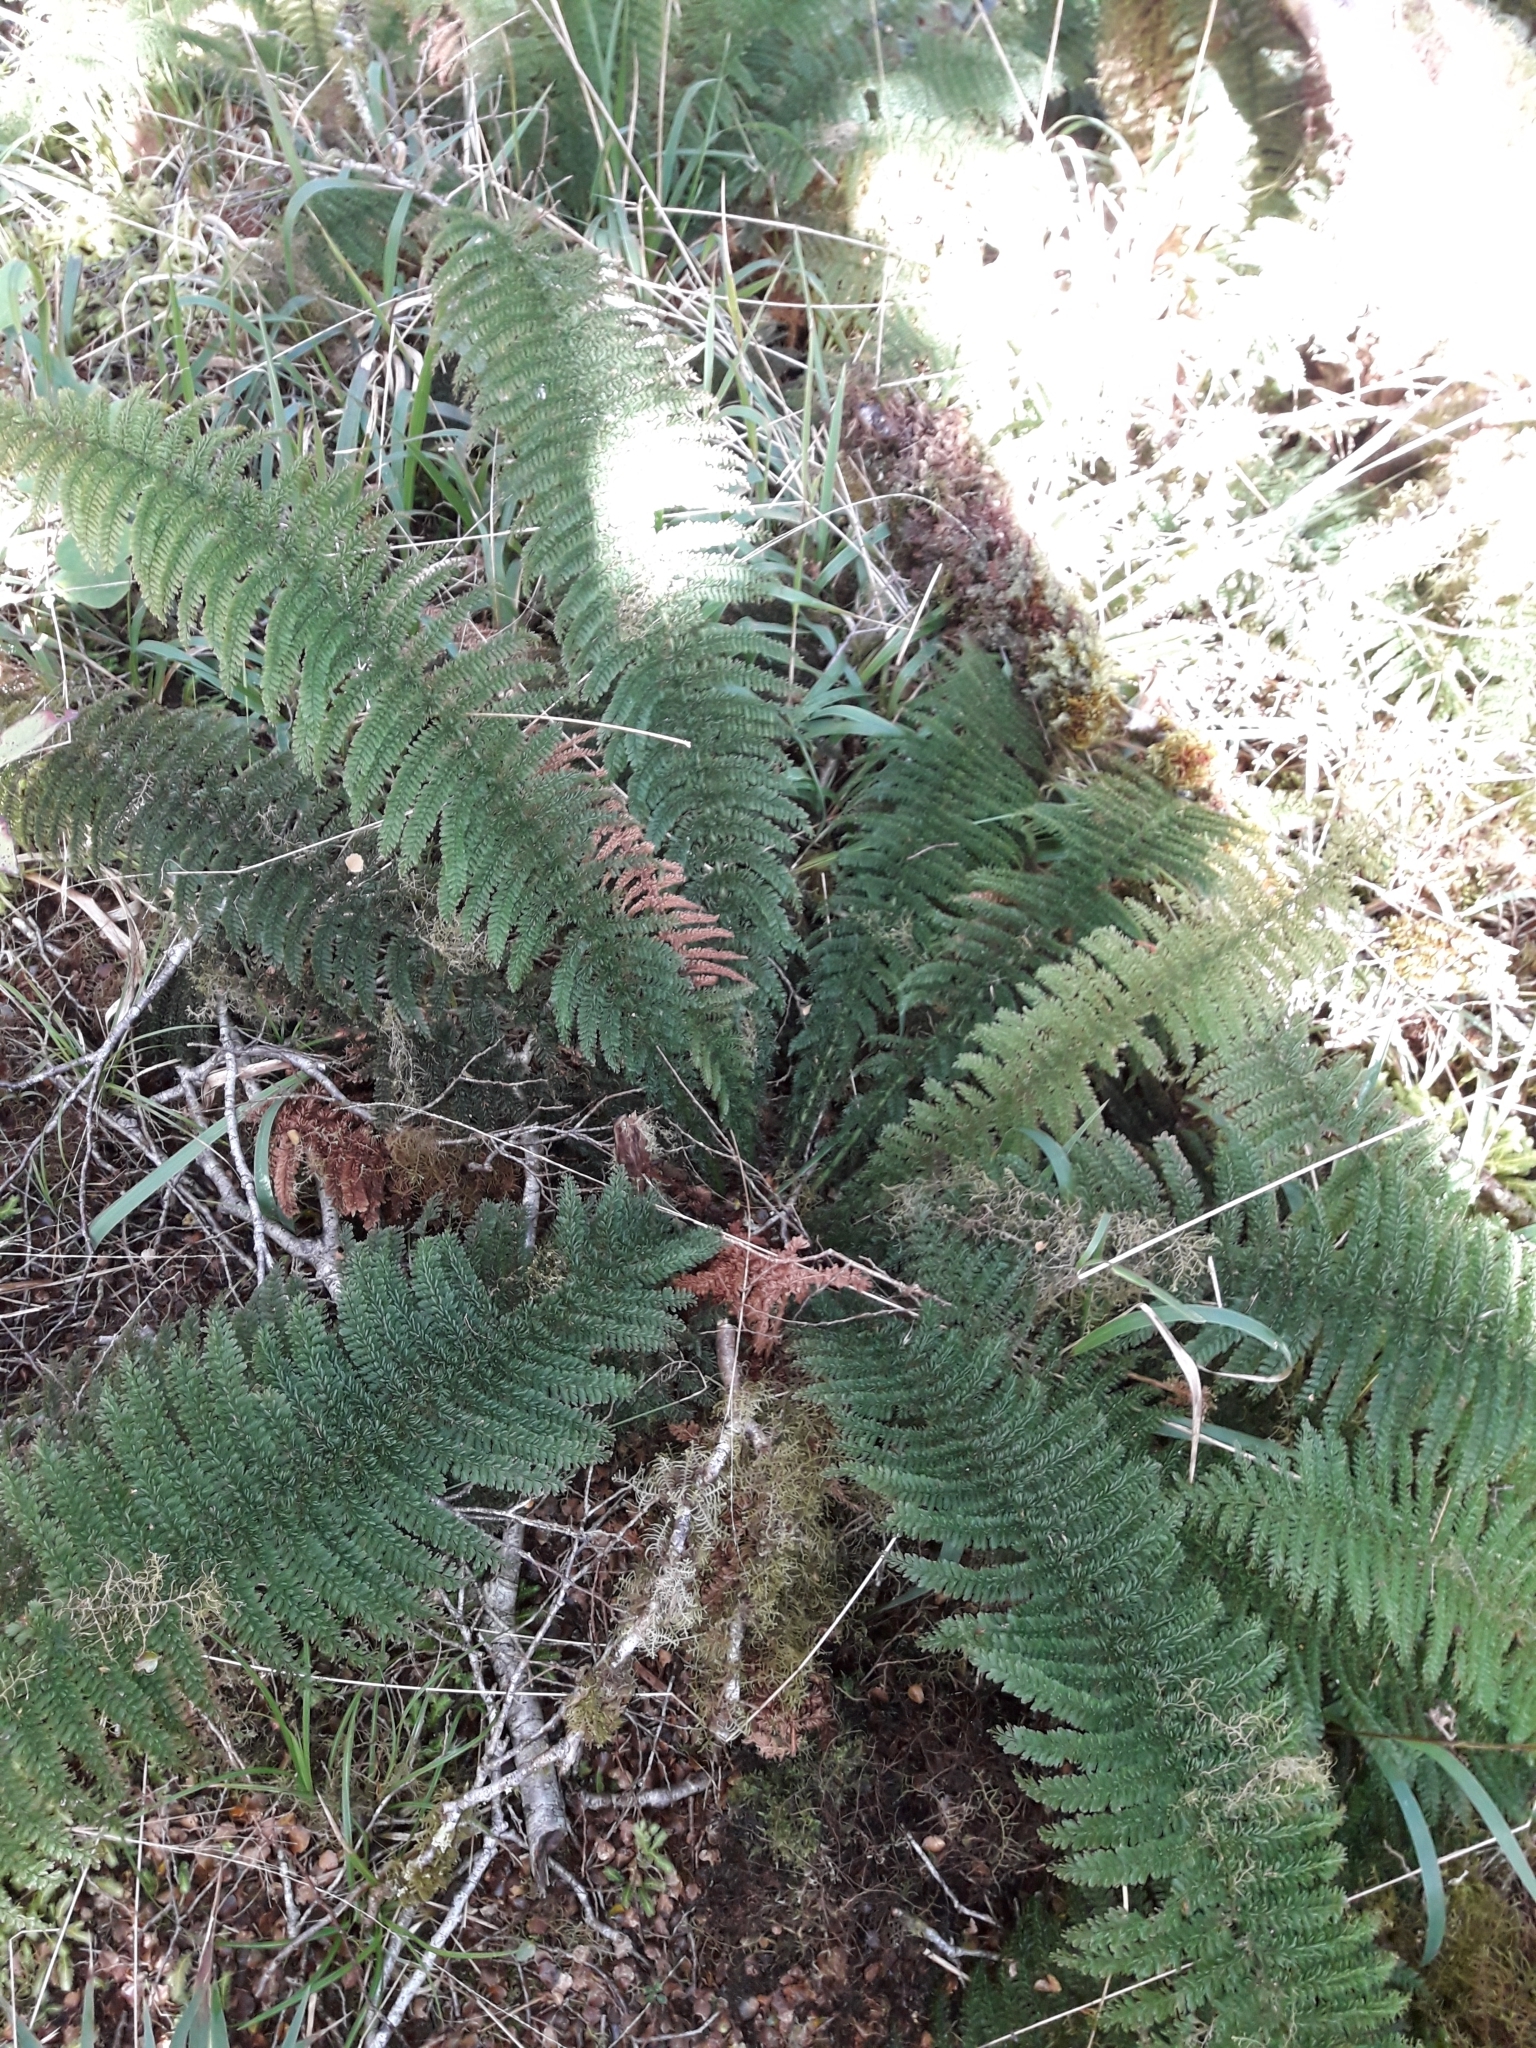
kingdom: Plantae
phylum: Tracheophyta
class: Polypodiopsida
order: Osmundales
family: Osmundaceae
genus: Leptopteris
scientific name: Leptopteris superba
